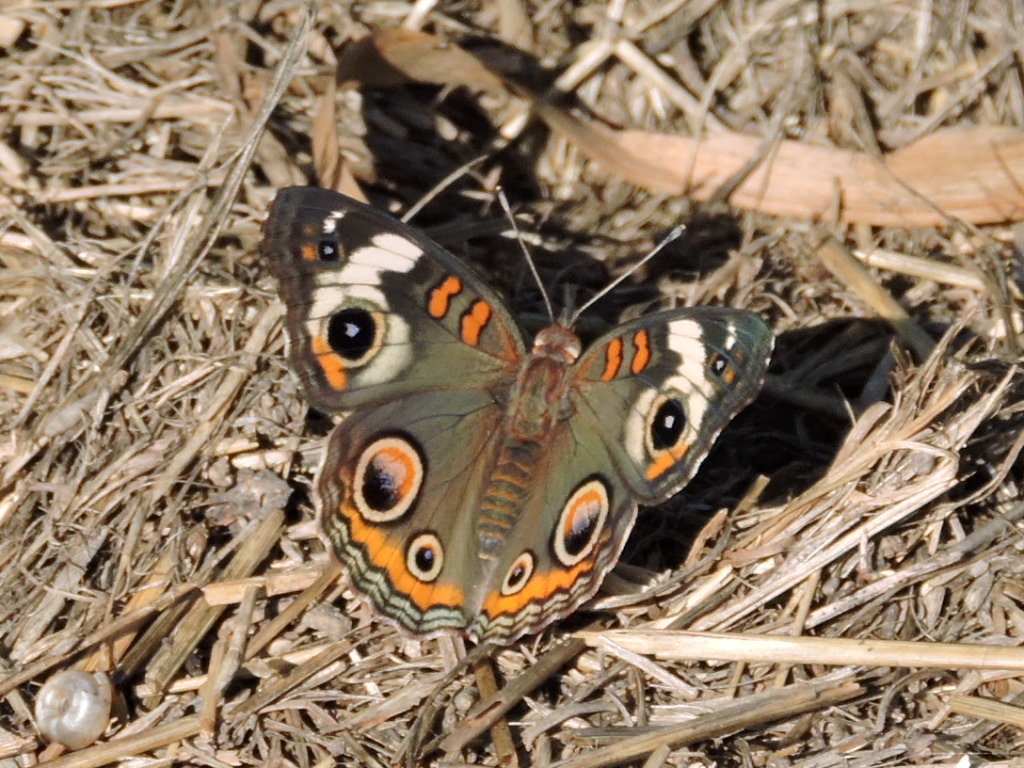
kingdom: Animalia
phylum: Arthropoda
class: Insecta
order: Lepidoptera
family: Nymphalidae
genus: Junonia
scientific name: Junonia coenia
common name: Common buckeye
